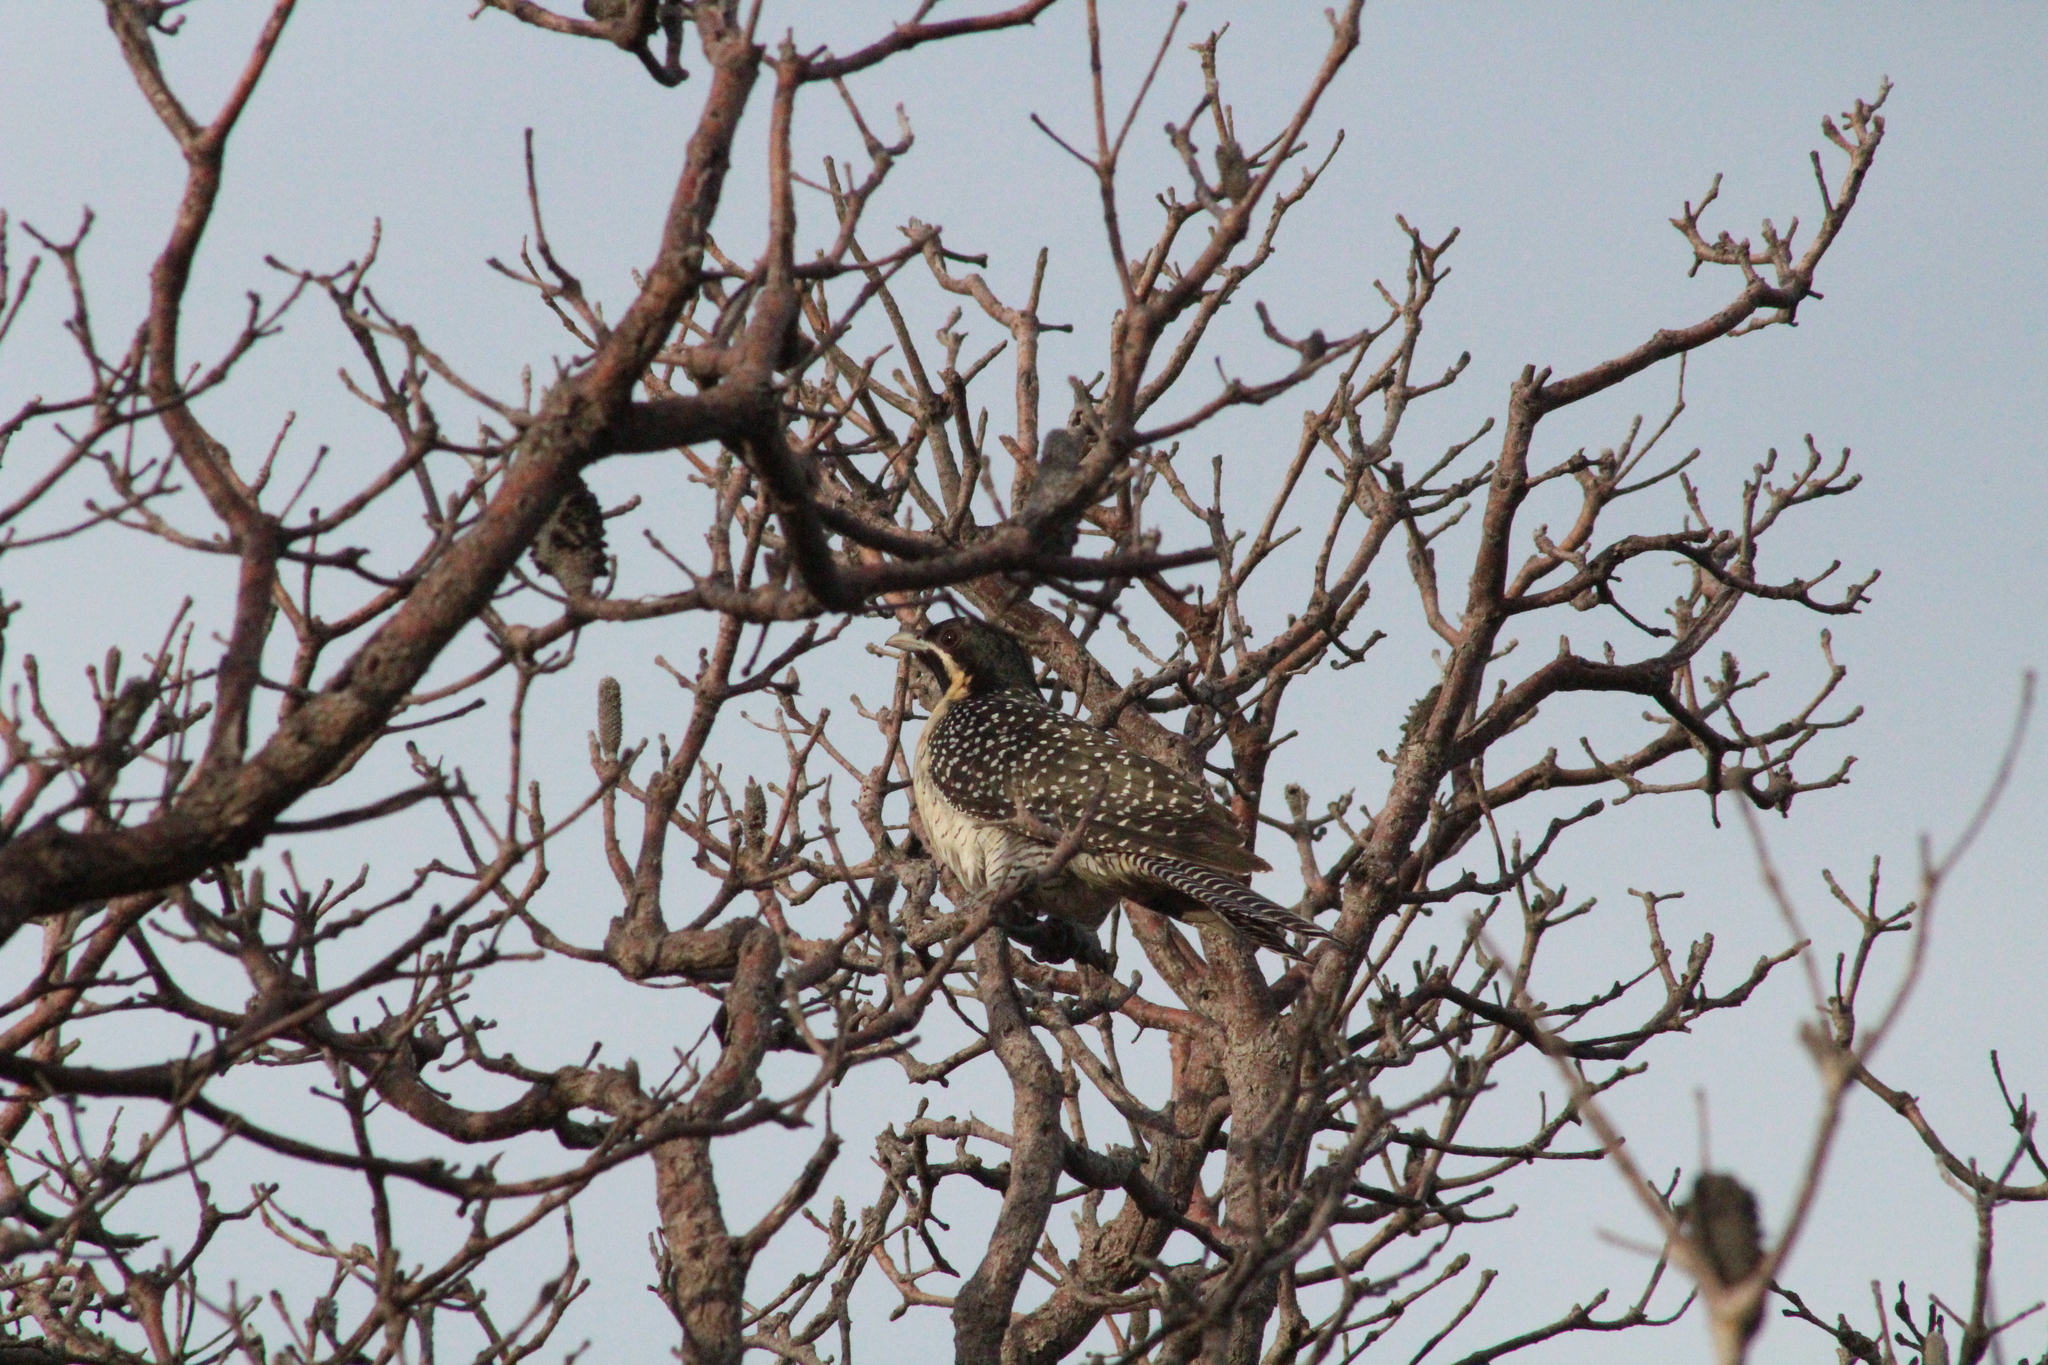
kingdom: Animalia
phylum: Chordata
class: Aves
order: Cuculiformes
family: Cuculidae
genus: Eudynamys
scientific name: Eudynamys orientalis
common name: Pacific koel
